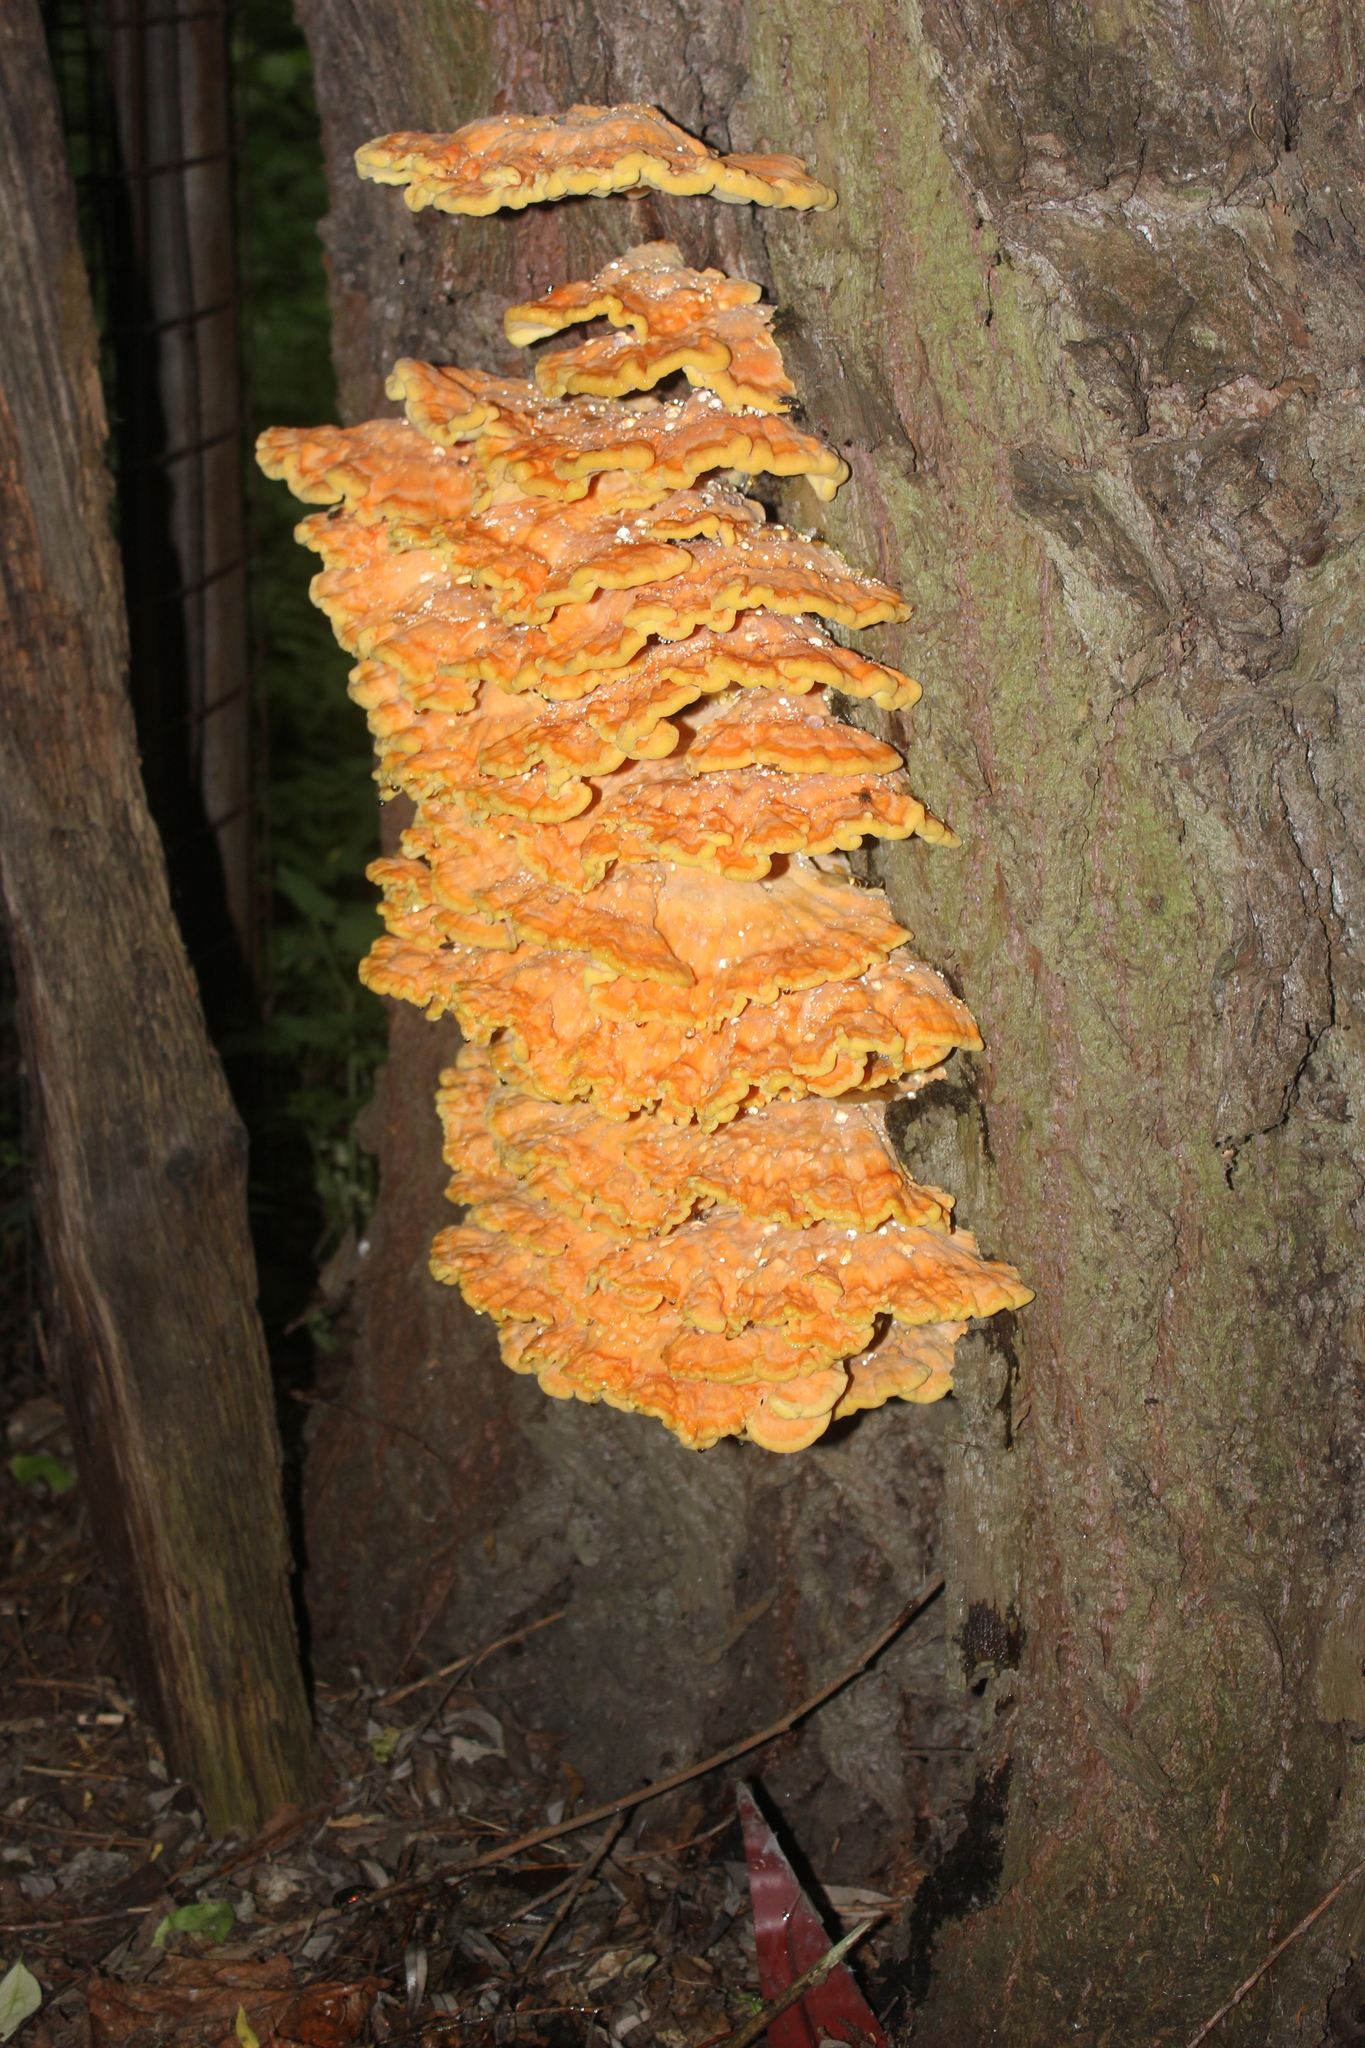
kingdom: Fungi
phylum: Basidiomycota
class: Agaricomycetes
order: Polyporales
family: Laetiporaceae
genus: Laetiporus
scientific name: Laetiporus sulphureus
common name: Chicken of the woods
